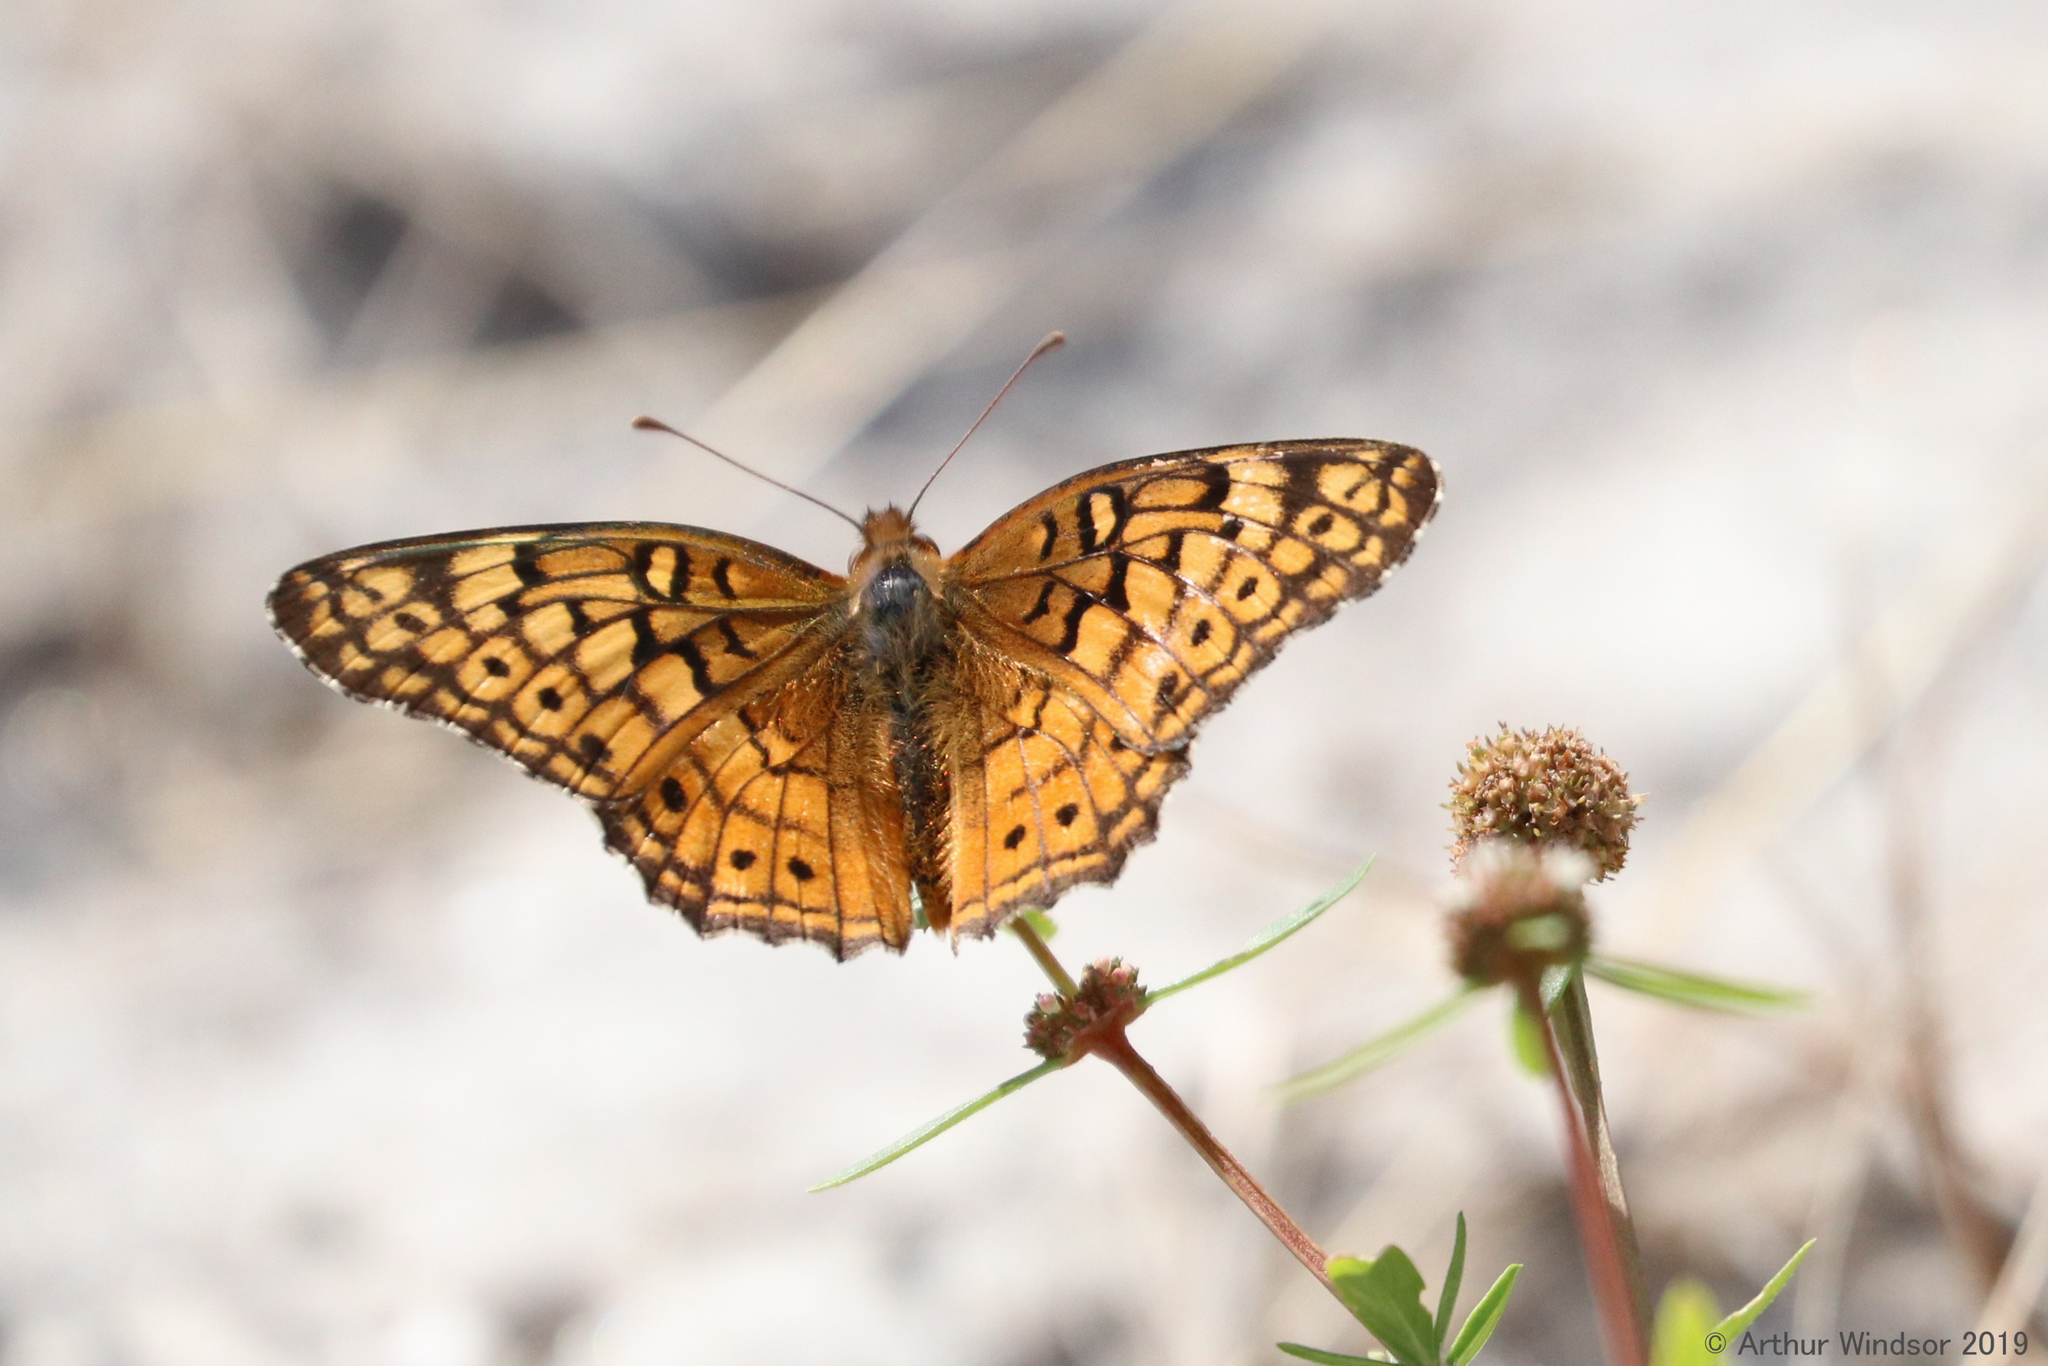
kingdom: Animalia
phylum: Arthropoda
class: Insecta
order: Lepidoptera
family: Nymphalidae
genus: Euptoieta
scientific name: Euptoieta claudia
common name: Variegated fritillary
